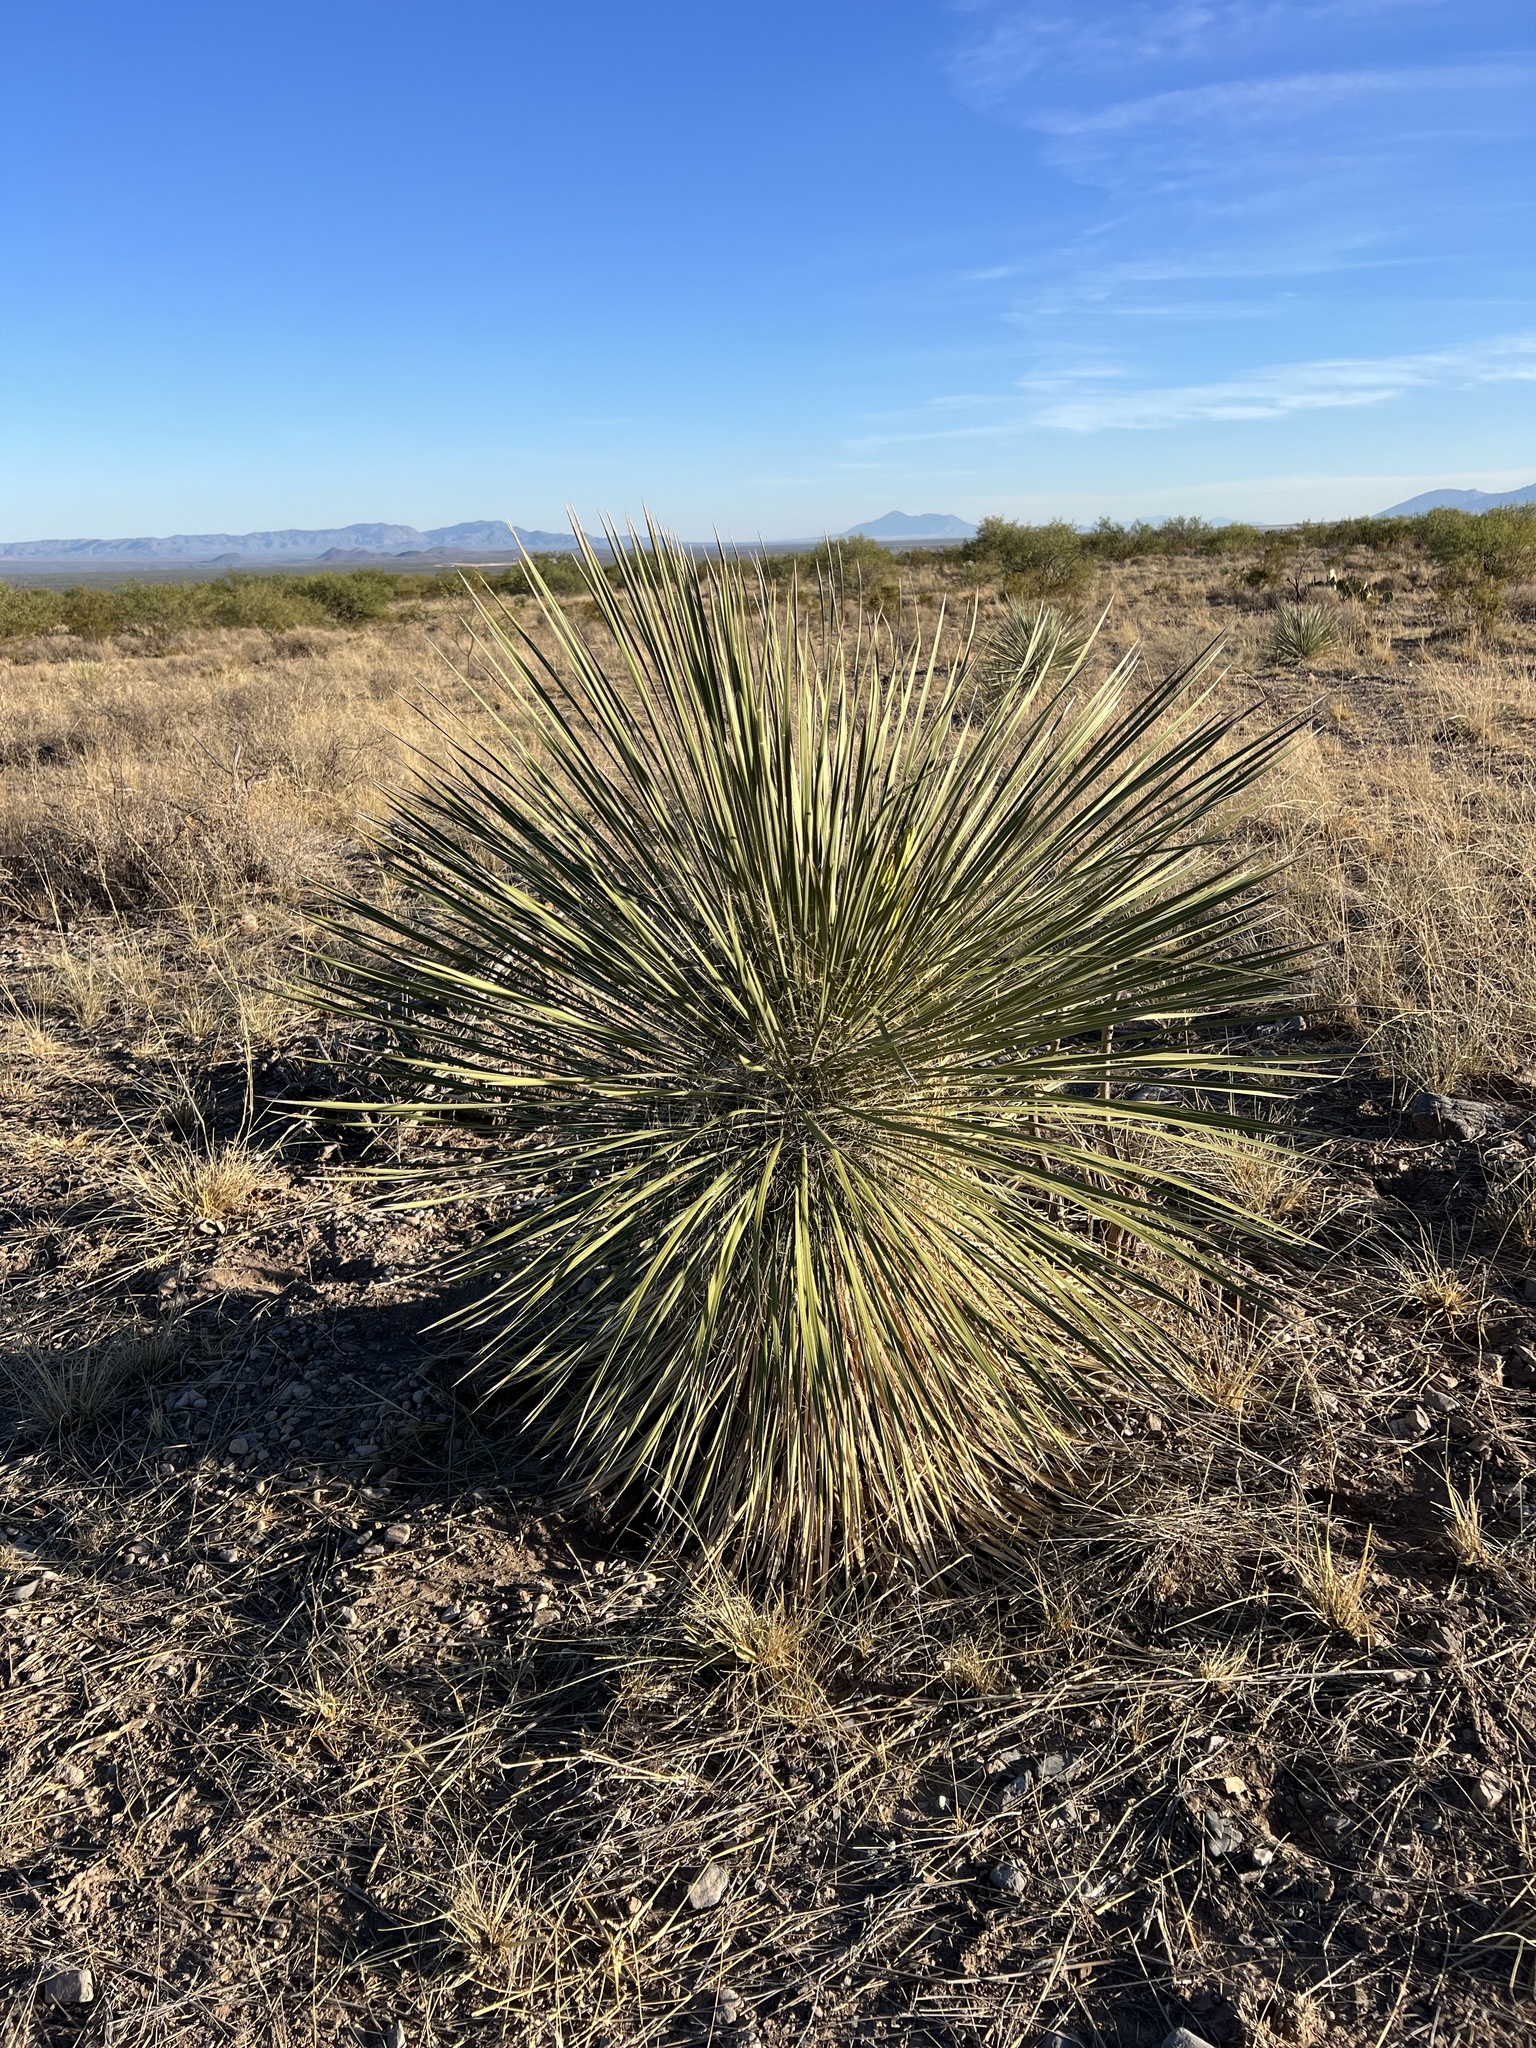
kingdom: Plantae
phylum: Tracheophyta
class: Liliopsida
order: Asparagales
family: Asparagaceae
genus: Yucca
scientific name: Yucca elata
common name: Palmella
